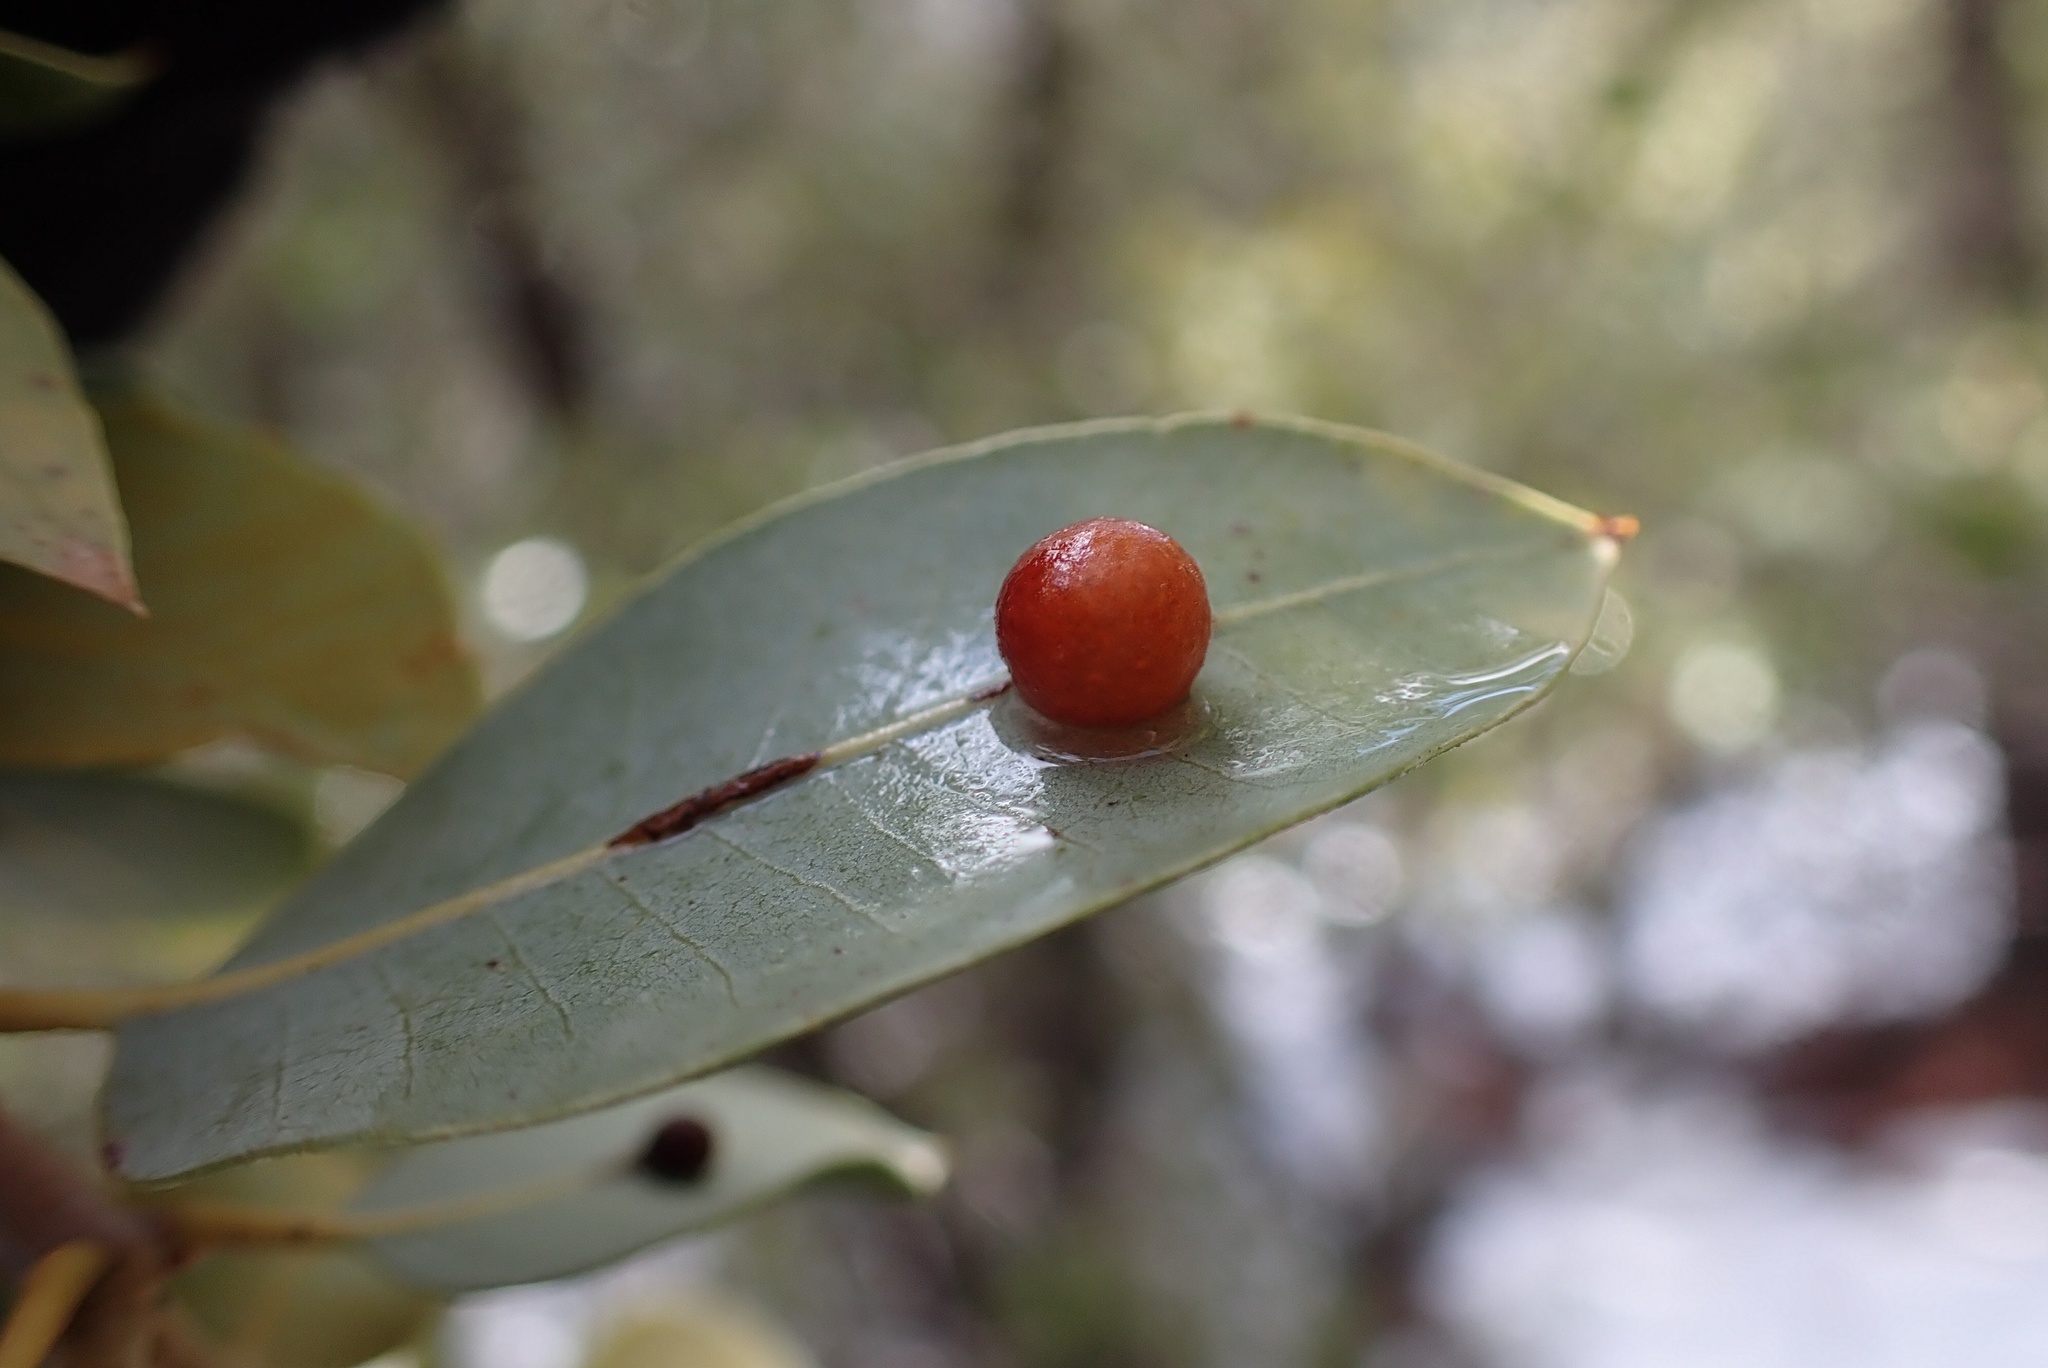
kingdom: Animalia
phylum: Arthropoda
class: Insecta
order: Hymenoptera
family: Cynipidae
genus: Andricus
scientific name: Andricus
